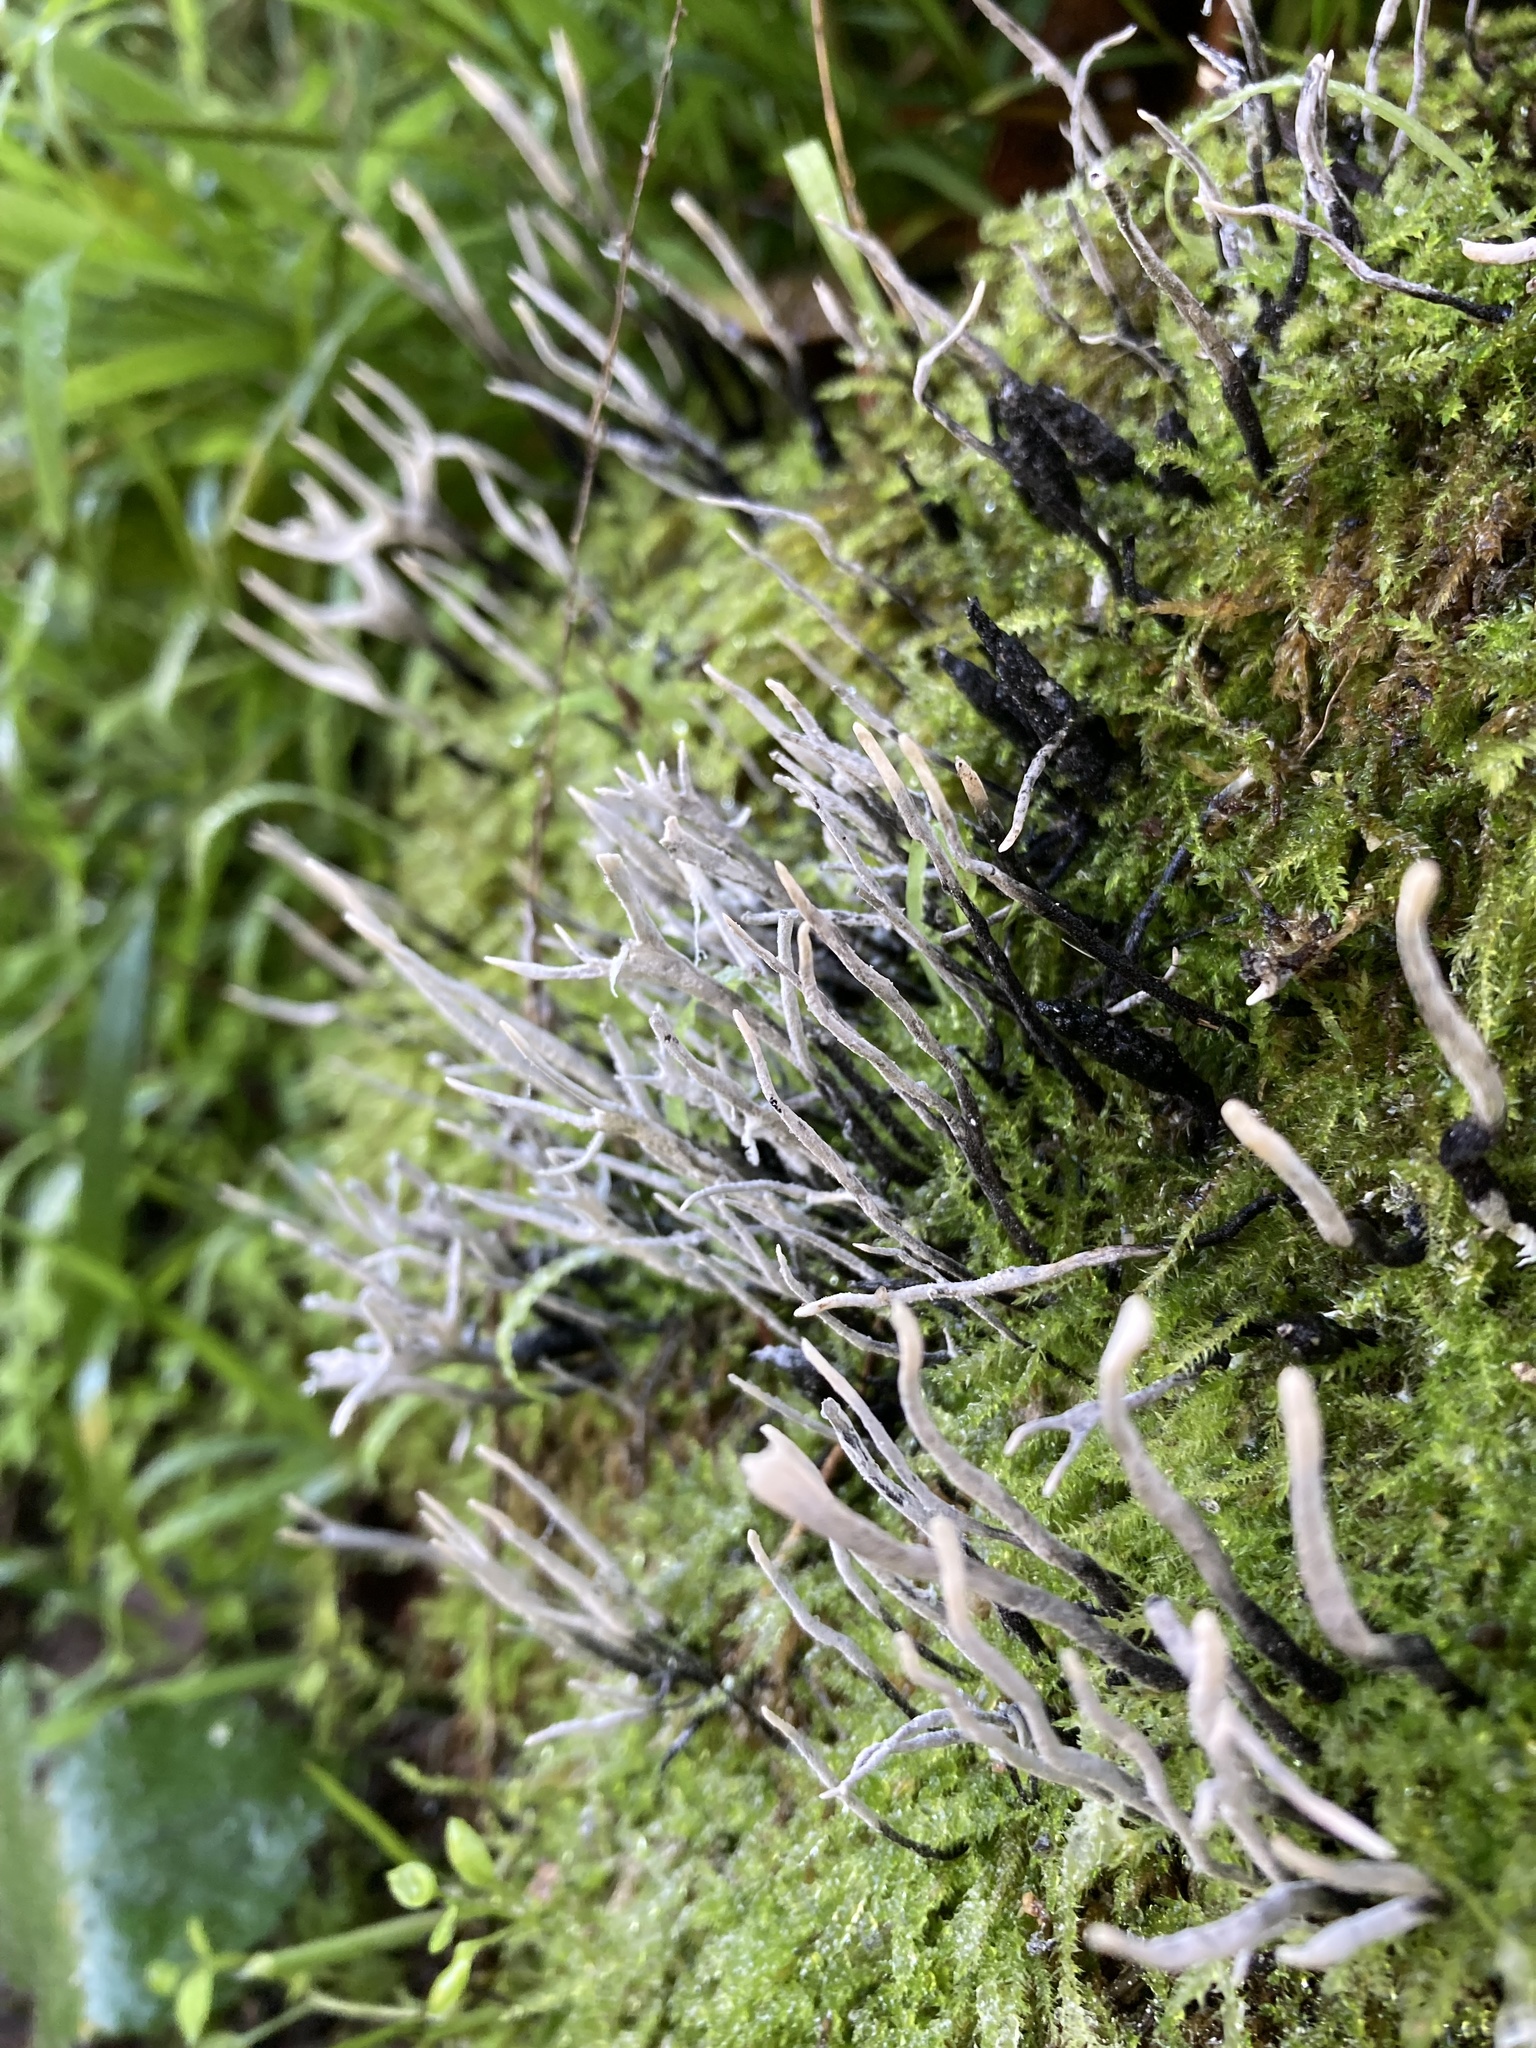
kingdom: Fungi
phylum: Ascomycota
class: Sordariomycetes
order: Xylariales
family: Xylariaceae
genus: Xylaria
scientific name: Xylaria hypoxylon
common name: Candle-snuff fungus
